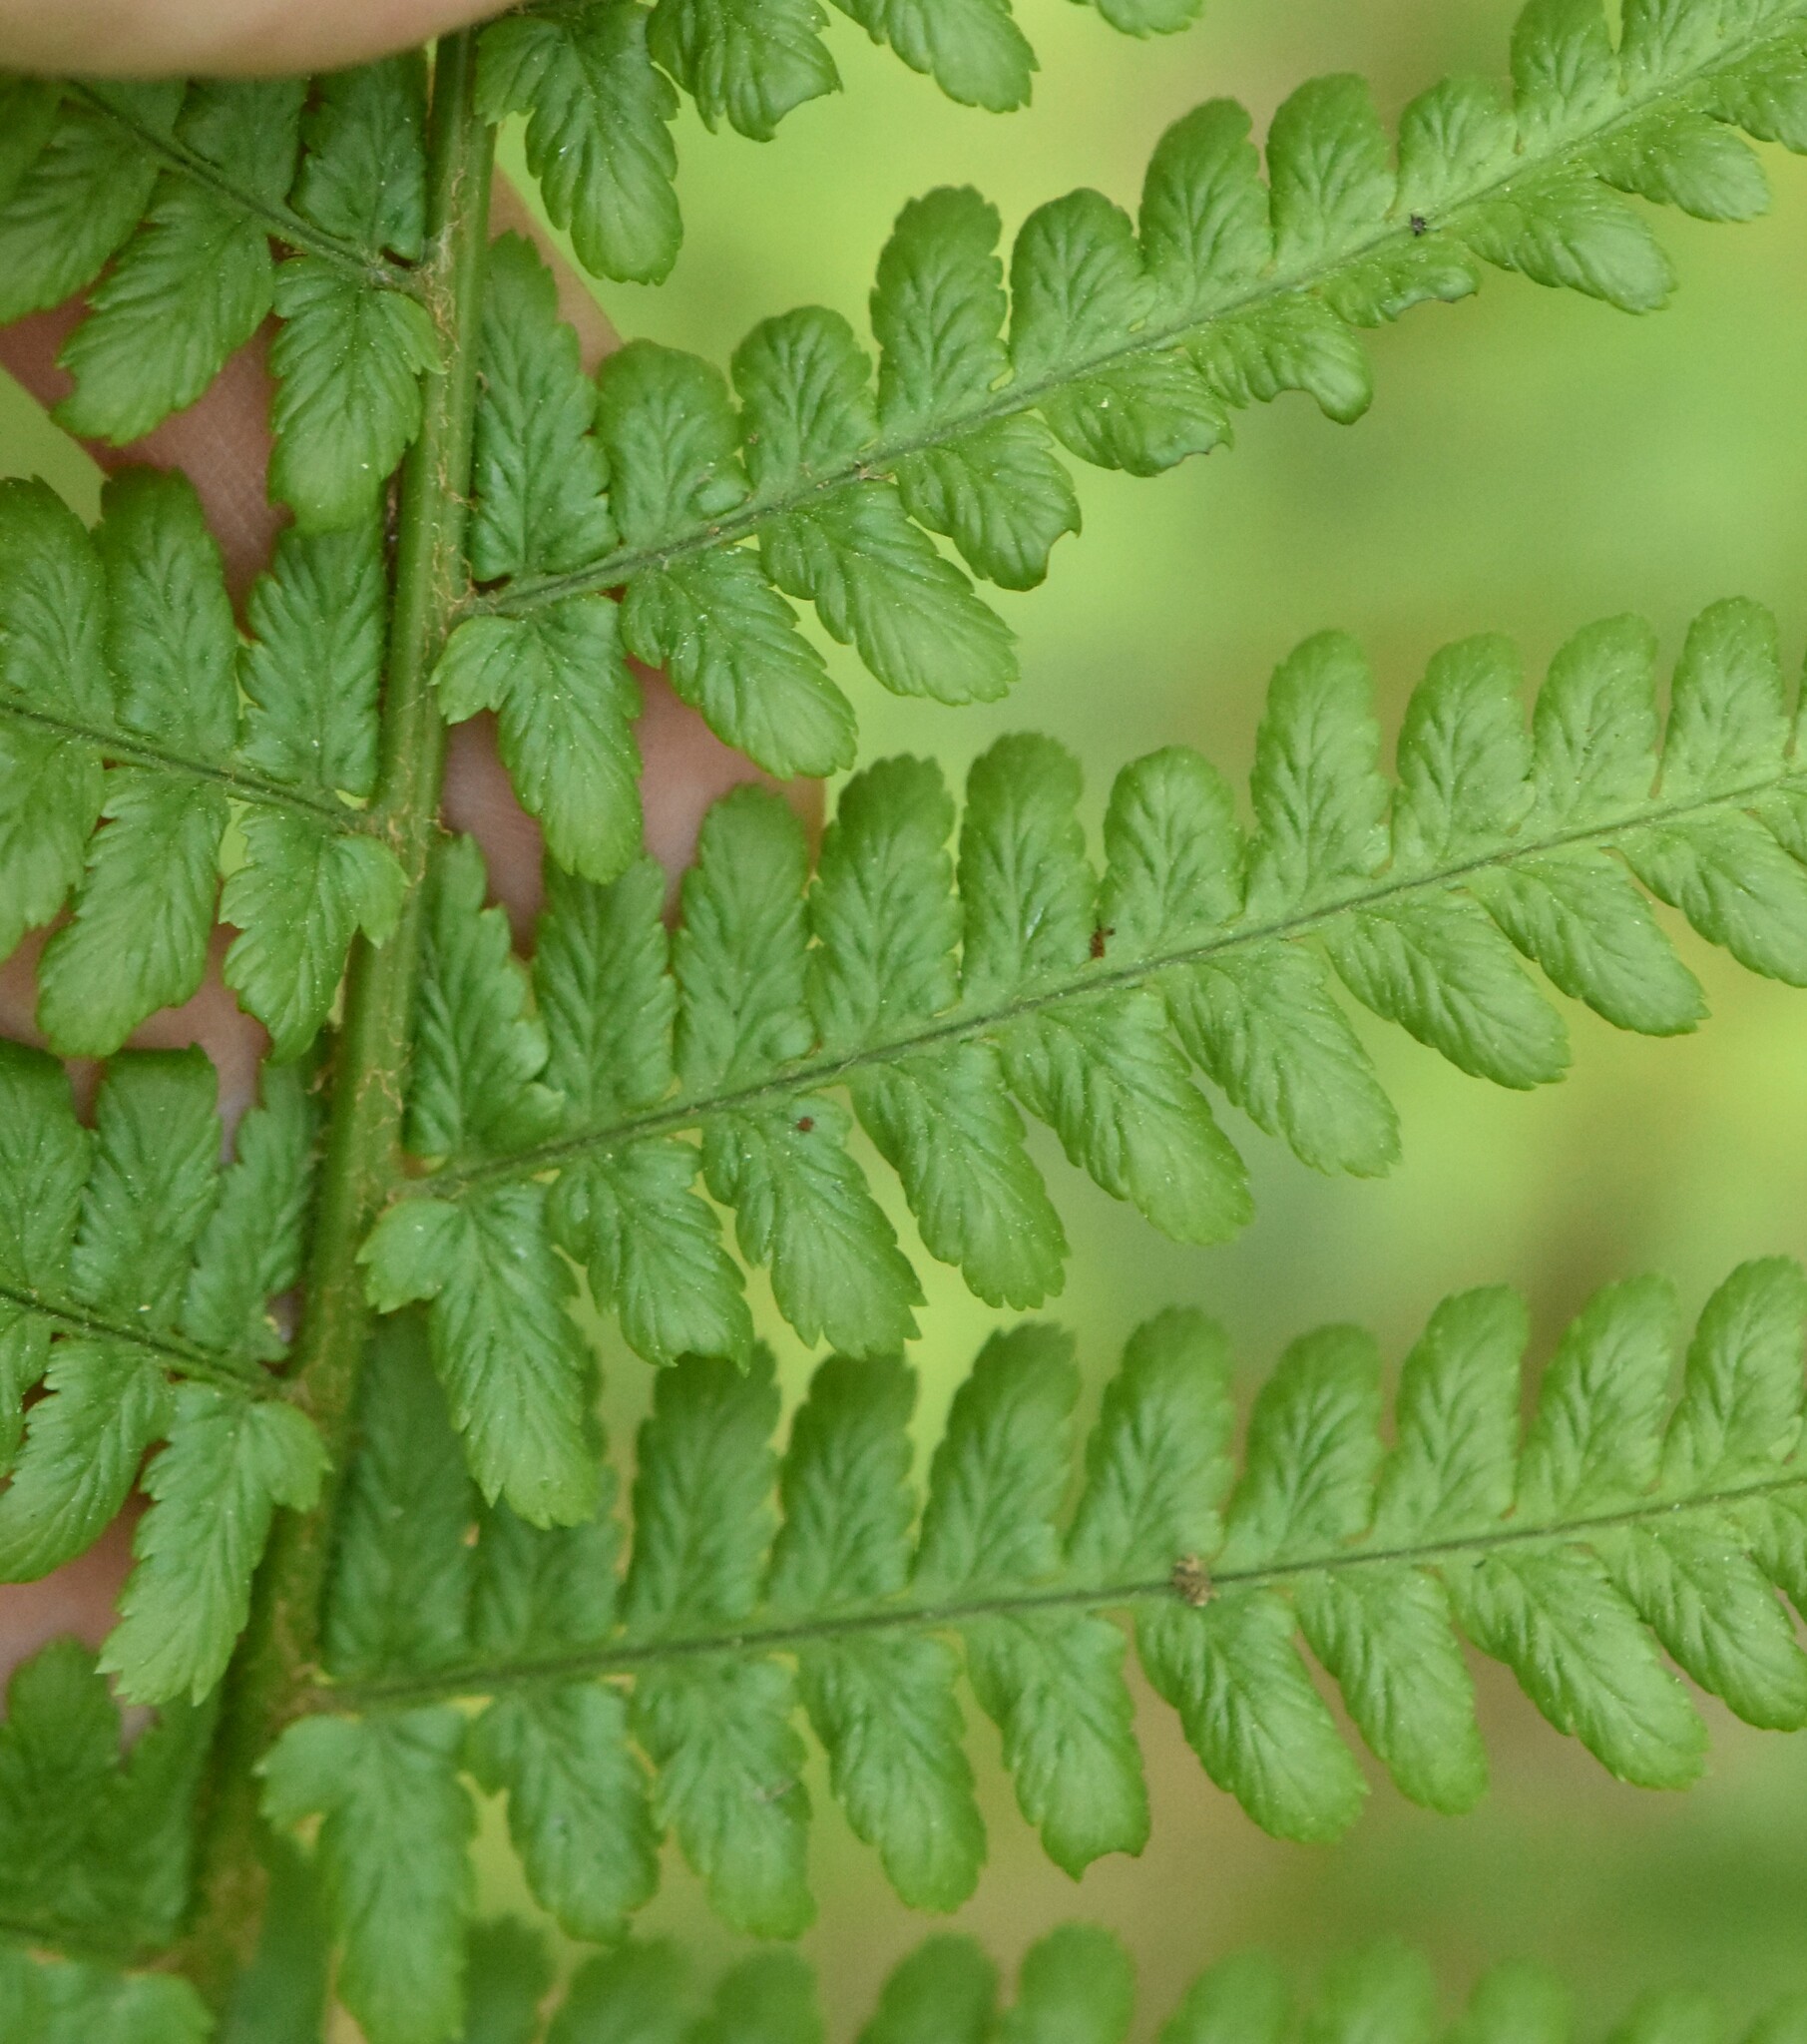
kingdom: Plantae
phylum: Tracheophyta
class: Polypodiopsida
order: Polypodiales
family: Dryopteridaceae
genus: Dryopteris
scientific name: Dryopteris filix-mas
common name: Male fern
